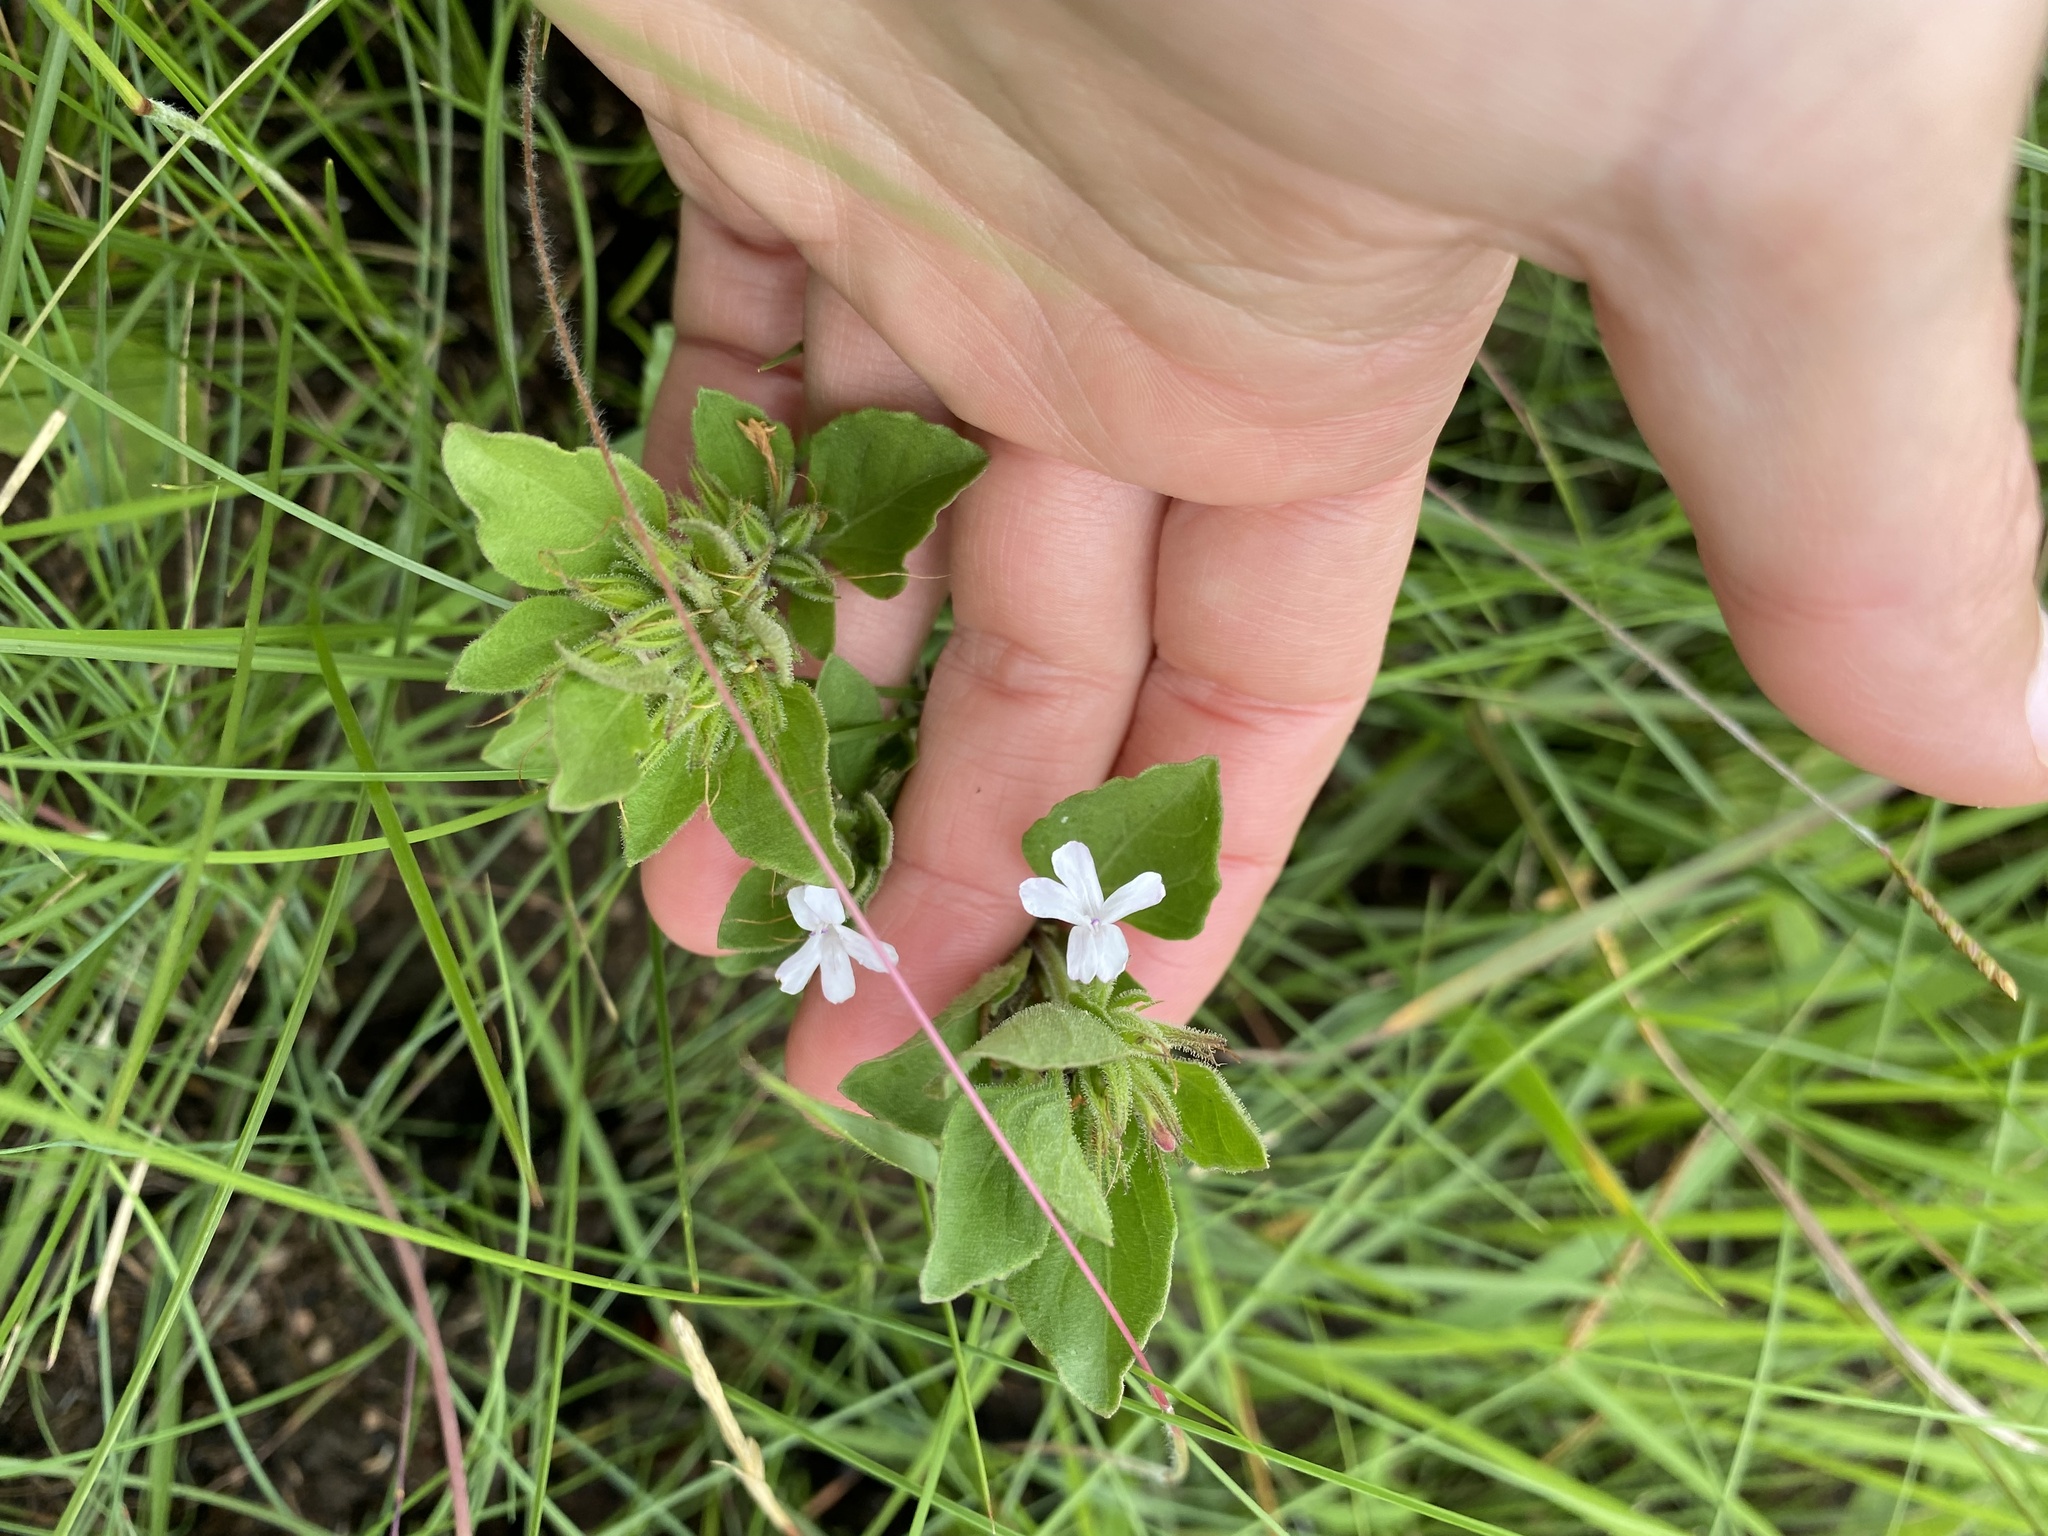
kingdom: Plantae
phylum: Tracheophyta
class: Magnoliopsida
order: Lamiales
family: Acanthaceae
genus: Dyschoriste
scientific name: Dyschoriste setigera
